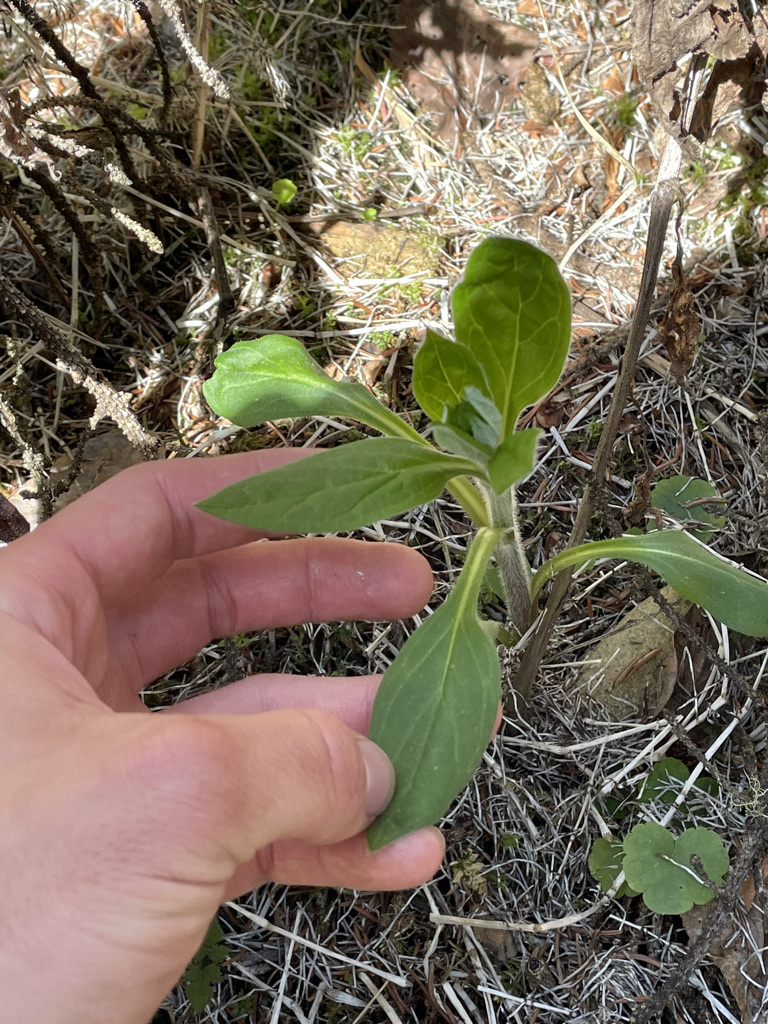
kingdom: Plantae
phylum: Tracheophyta
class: Magnoliopsida
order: Asterales
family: Asteraceae
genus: Symphyotrichum
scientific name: Symphyotrichum ciliolatum
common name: Fringed blue aster
